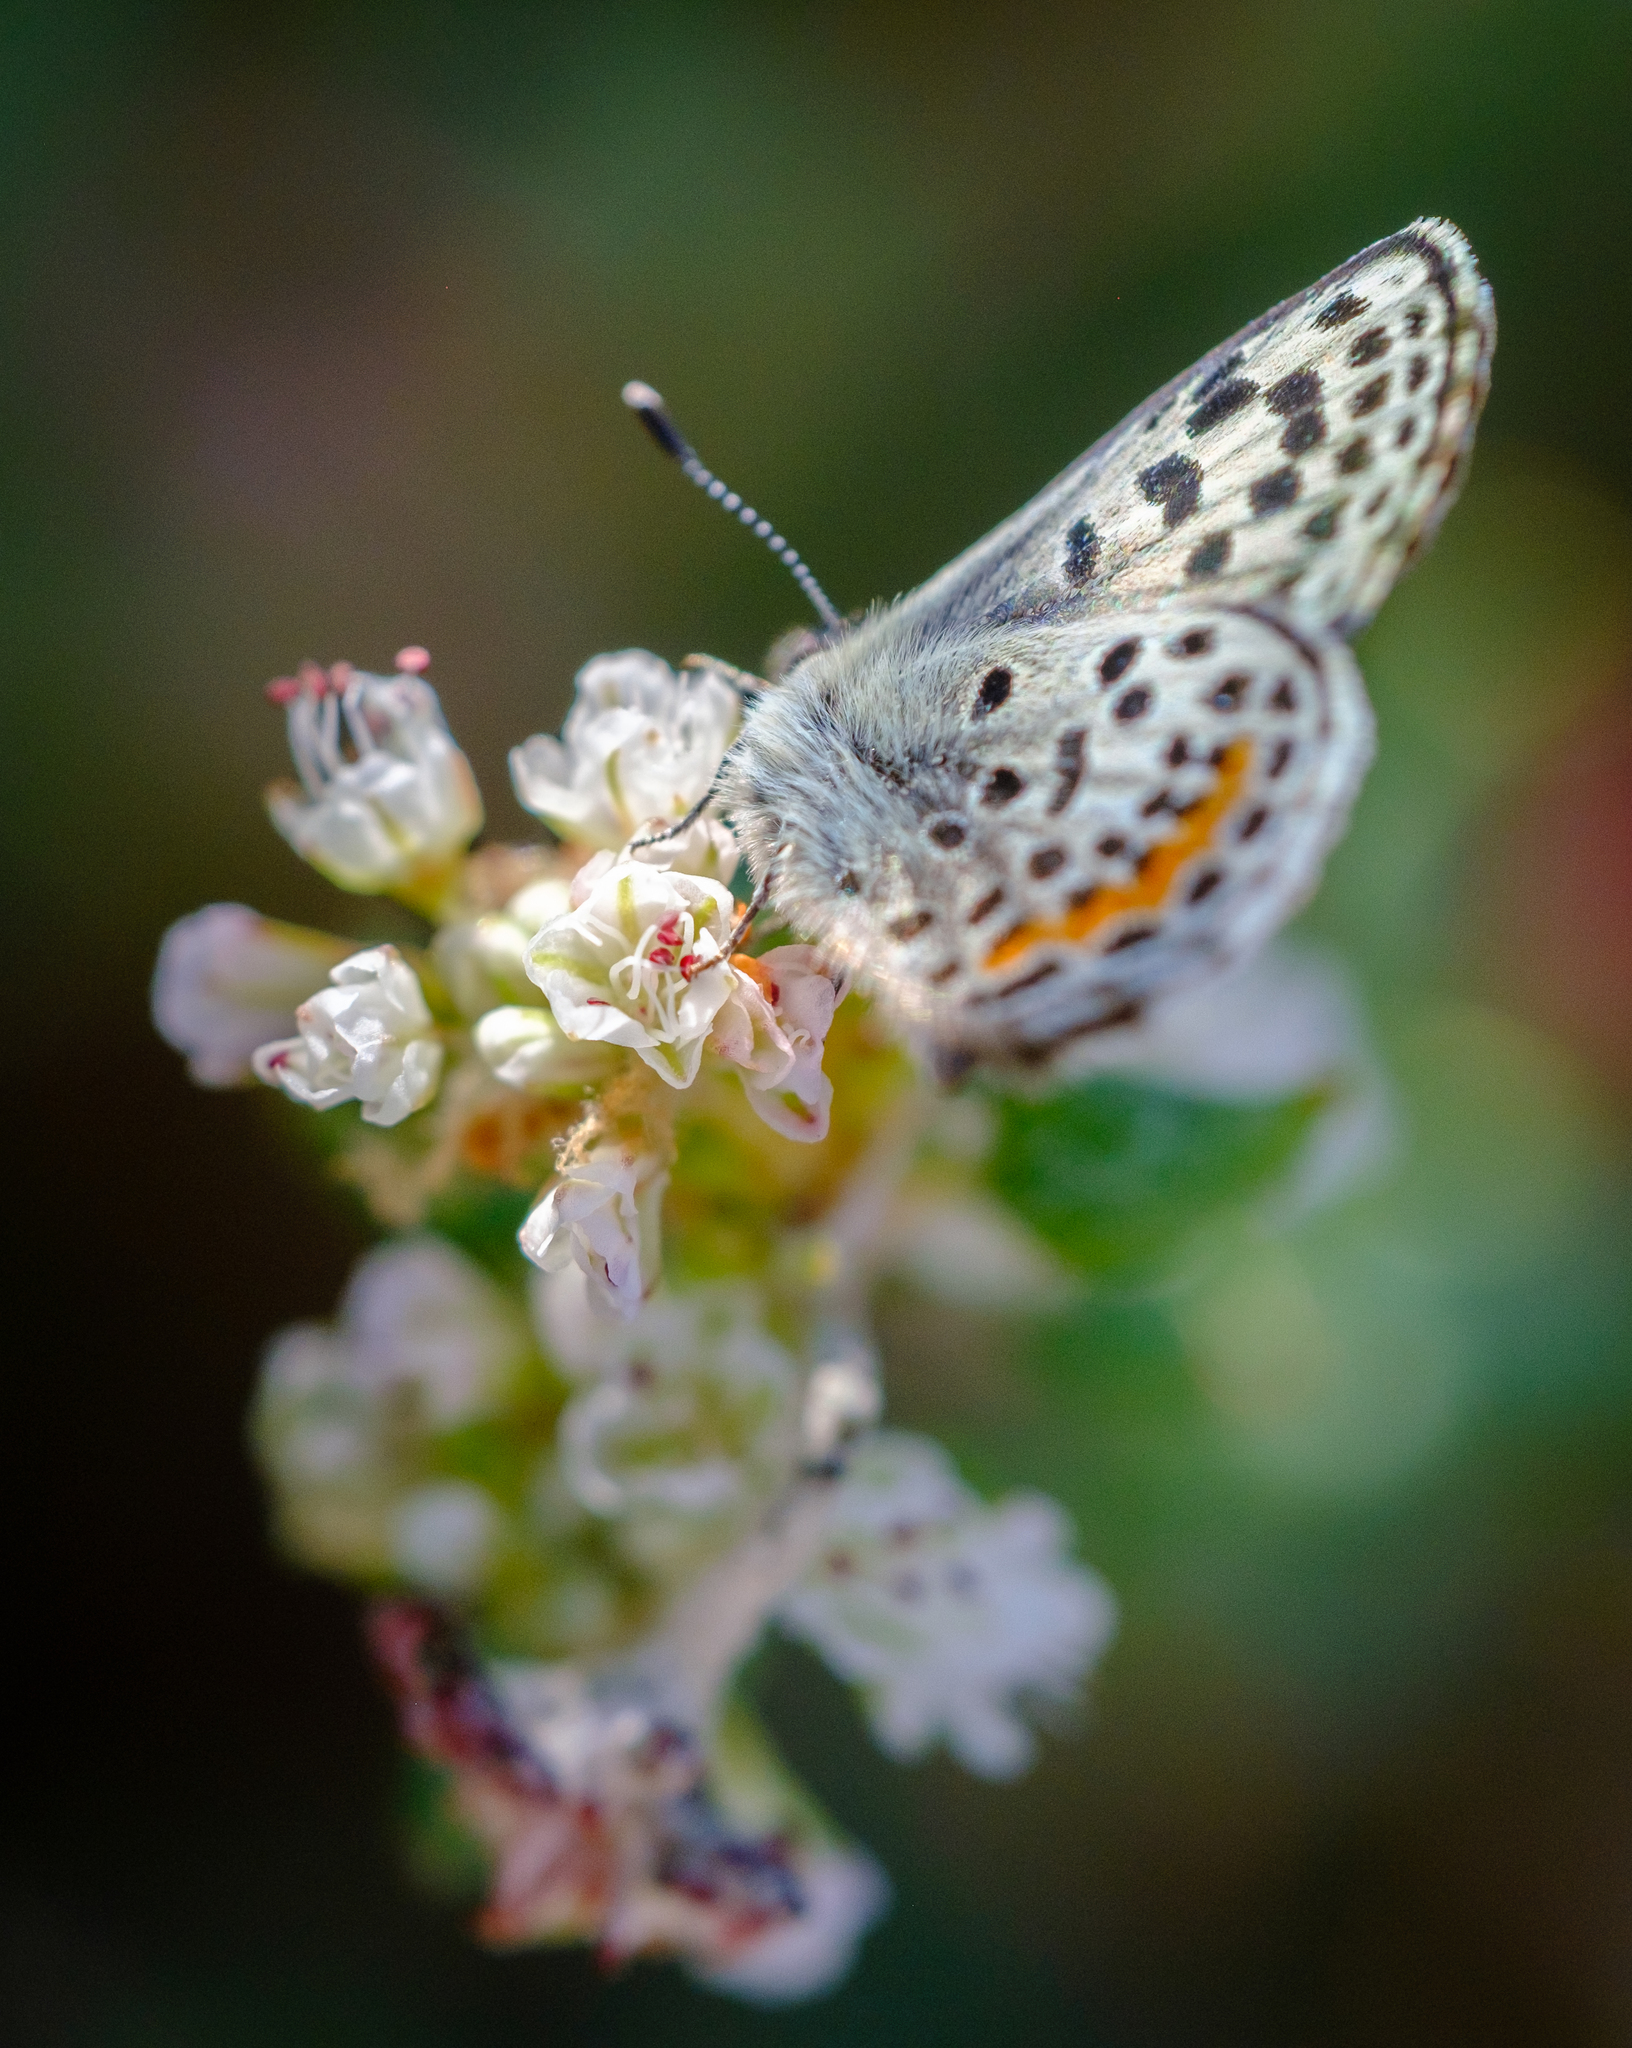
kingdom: Animalia
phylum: Arthropoda
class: Insecta
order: Lepidoptera
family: Lycaenidae
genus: Euphilotes
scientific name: Euphilotes battoides
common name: Square-spotted blue
